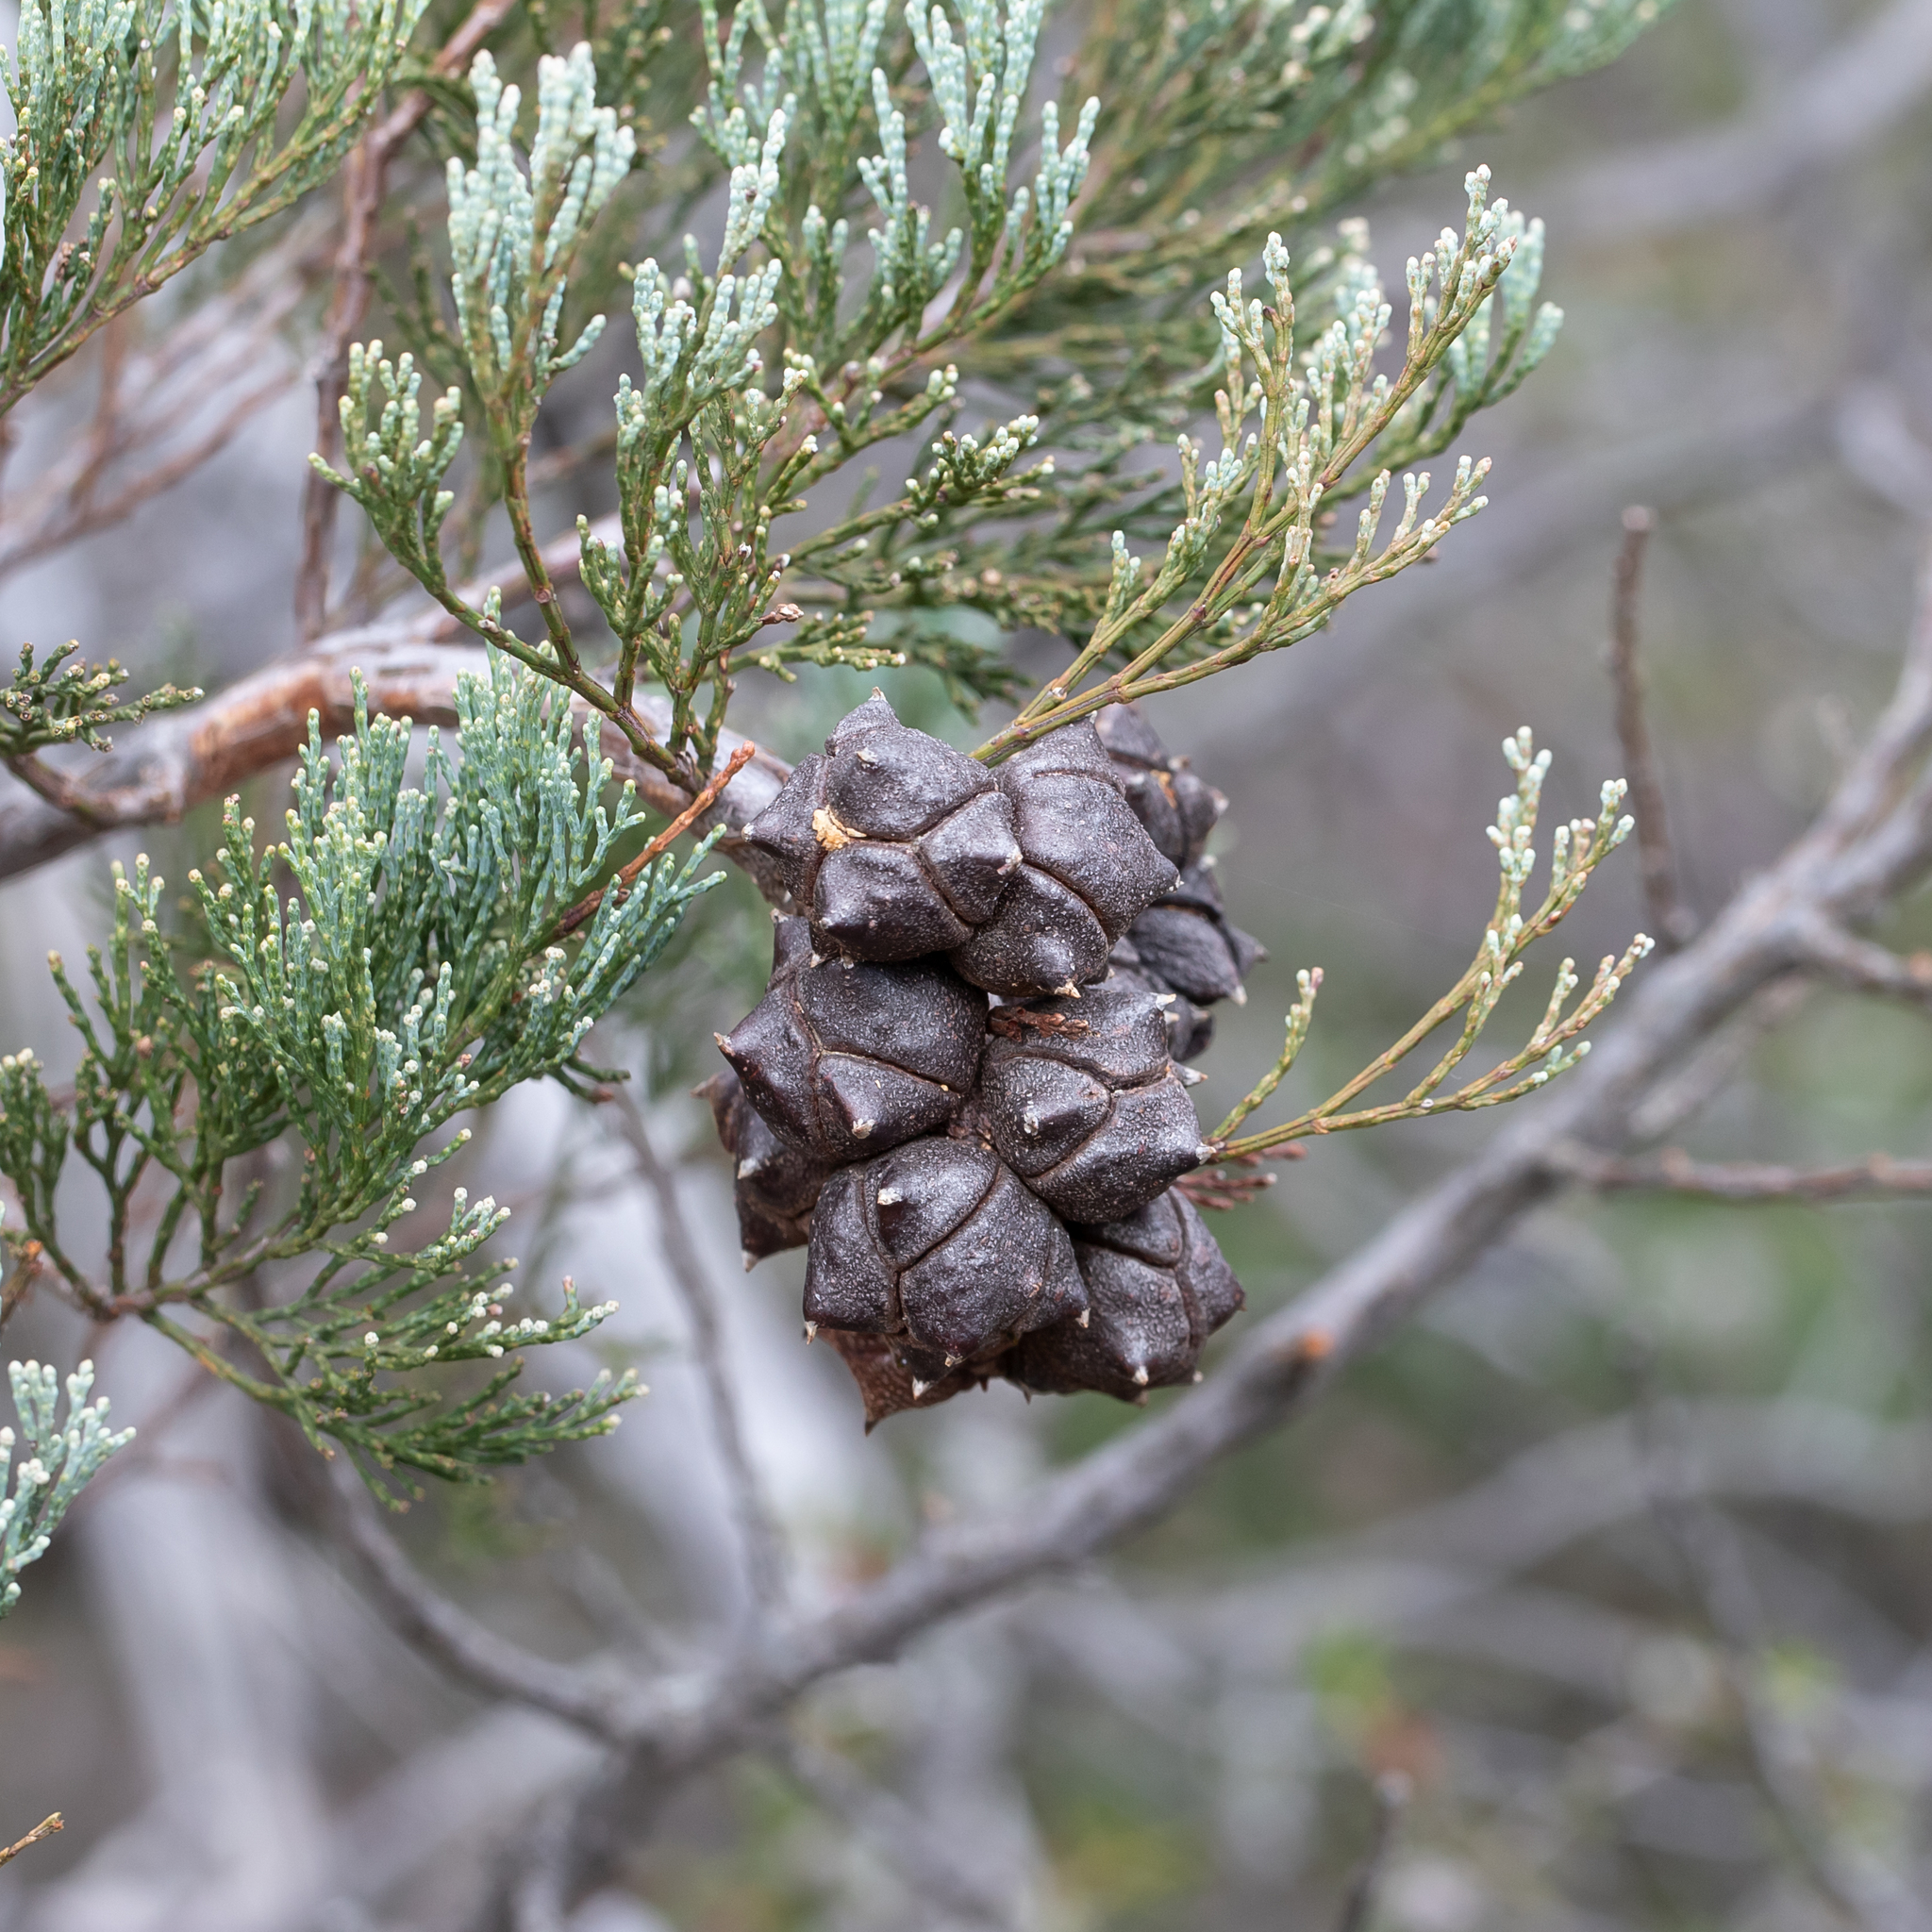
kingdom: Plantae
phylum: Tracheophyta
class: Pinopsida
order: Pinales
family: Cupressaceae
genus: Callitris
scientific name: Callitris rhomboidea
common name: Illawara mountain pine
